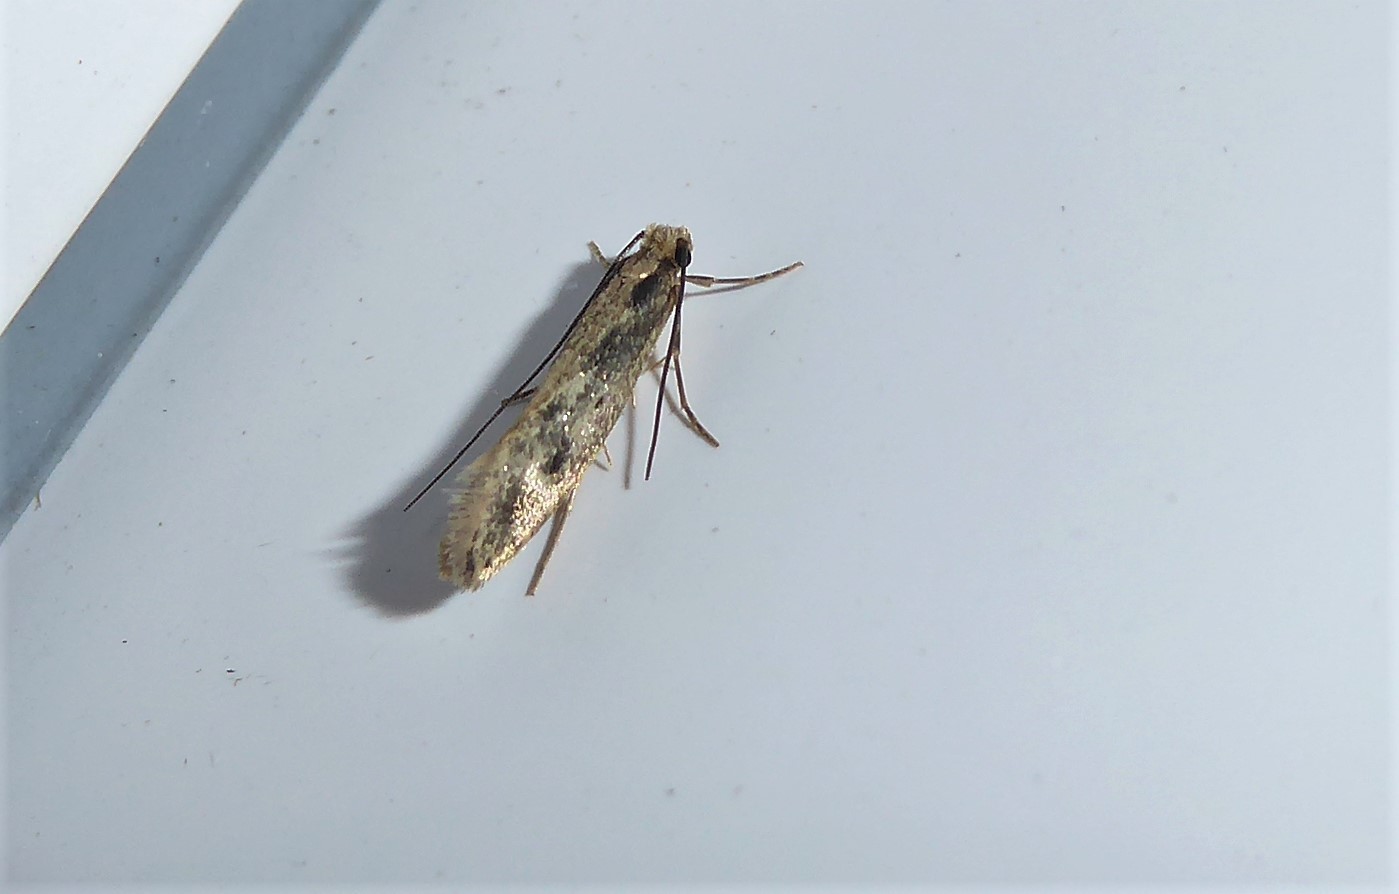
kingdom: Animalia
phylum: Arthropoda
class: Insecta
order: Lepidoptera
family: Tineidae
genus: Tinea
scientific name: Tinea pallescentella
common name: Large pale clothes moth
